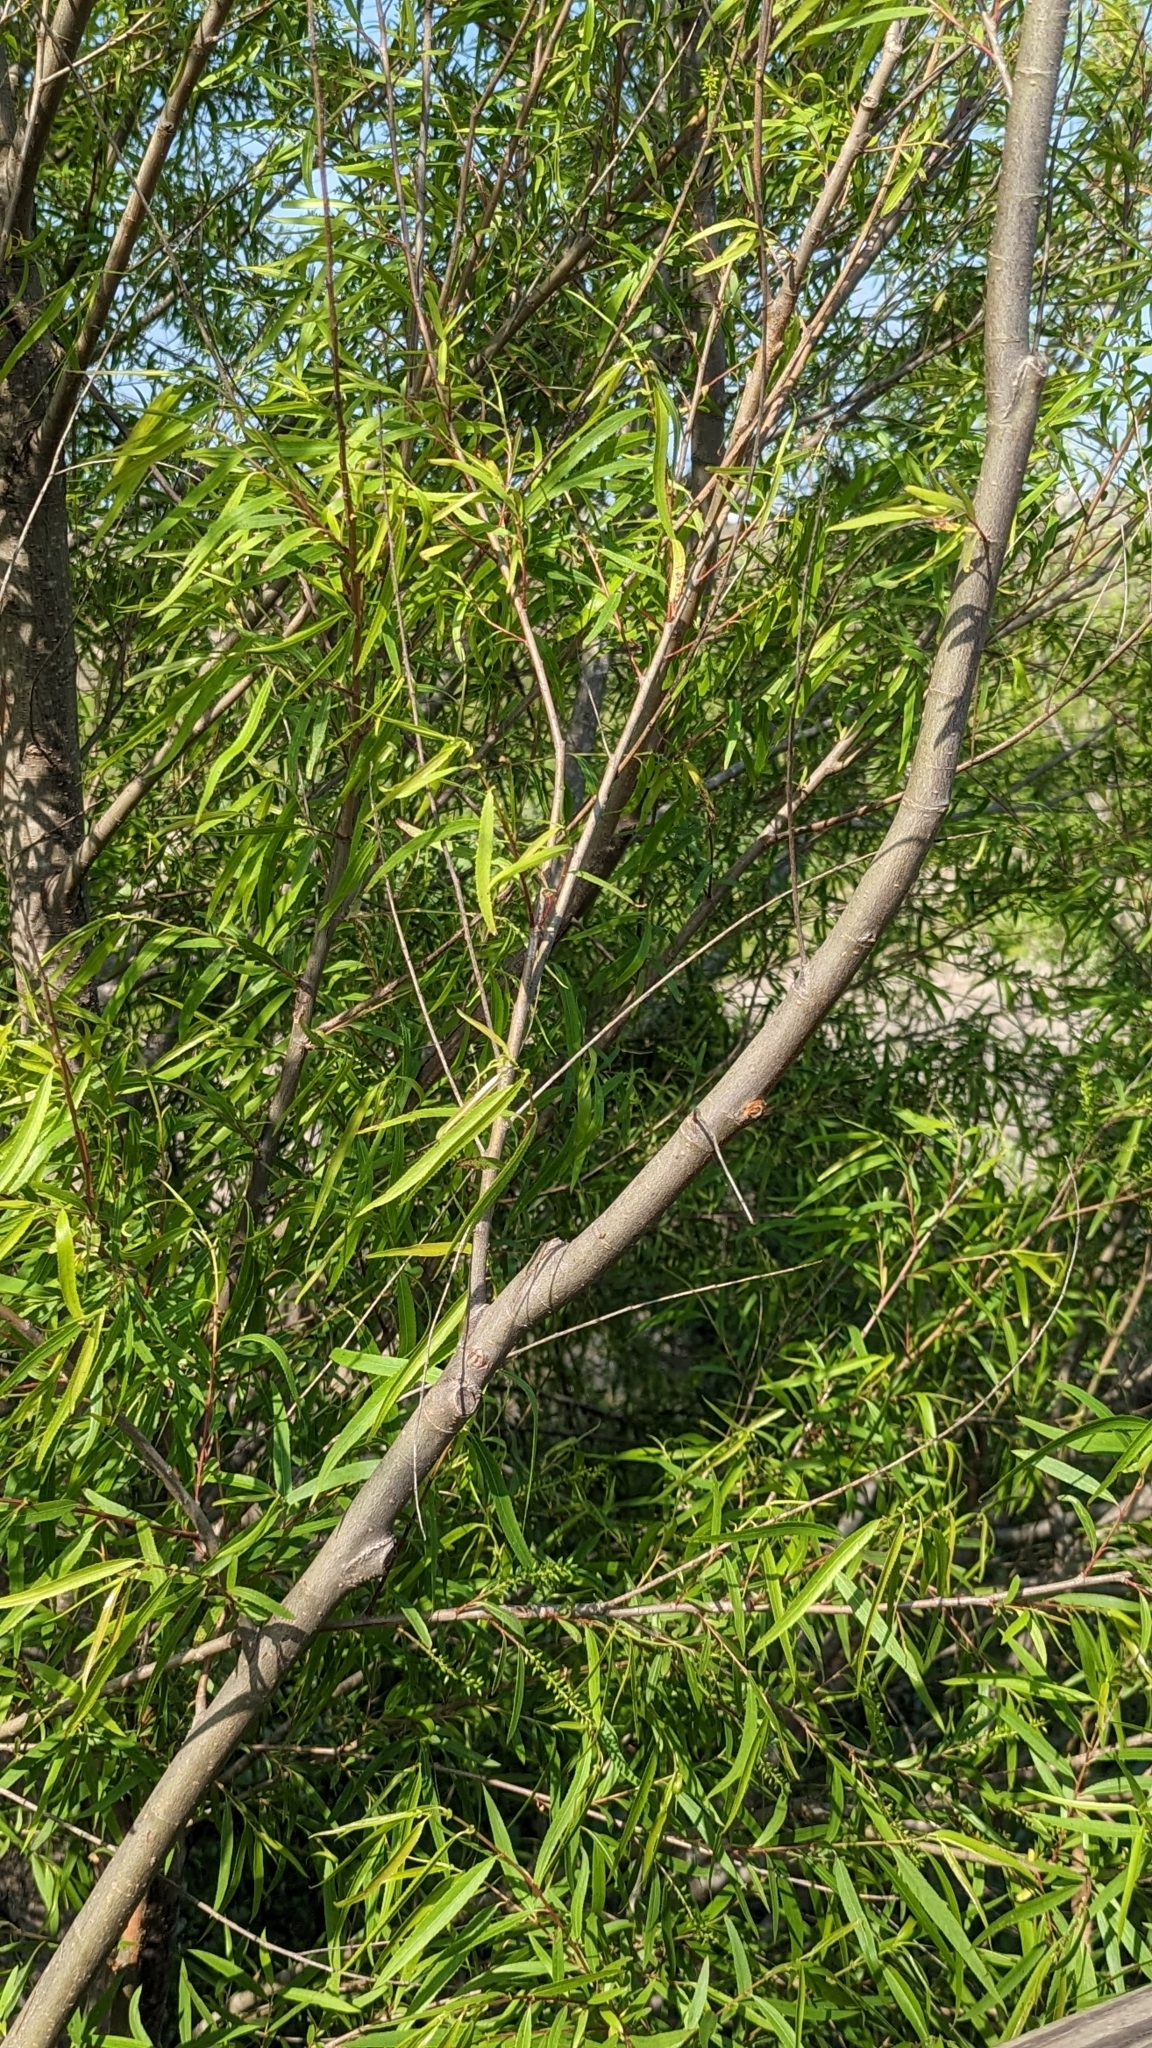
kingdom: Plantae
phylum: Tracheophyta
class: Magnoliopsida
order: Malpighiales
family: Salicaceae
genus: Salix
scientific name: Salix nigra
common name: Black willow
